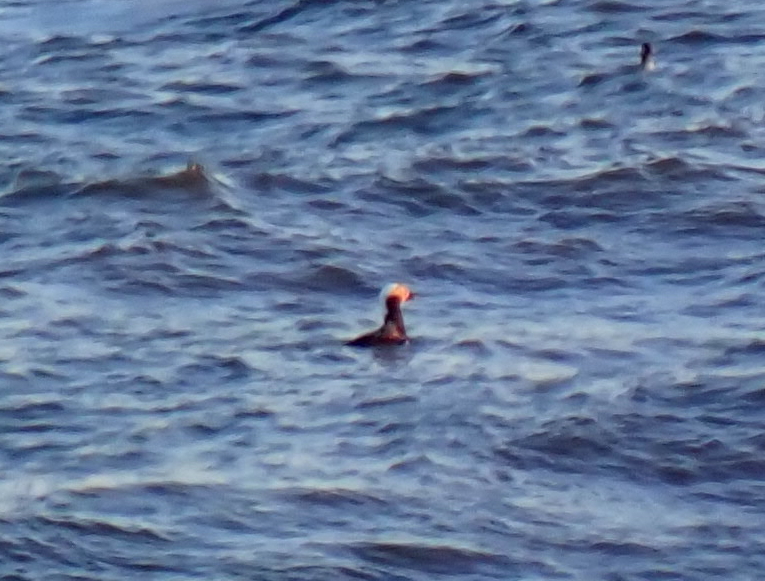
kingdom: Animalia
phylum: Chordata
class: Aves
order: Anseriformes
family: Anatidae
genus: Clangula
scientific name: Clangula hyemalis
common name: Long-tailed duck
